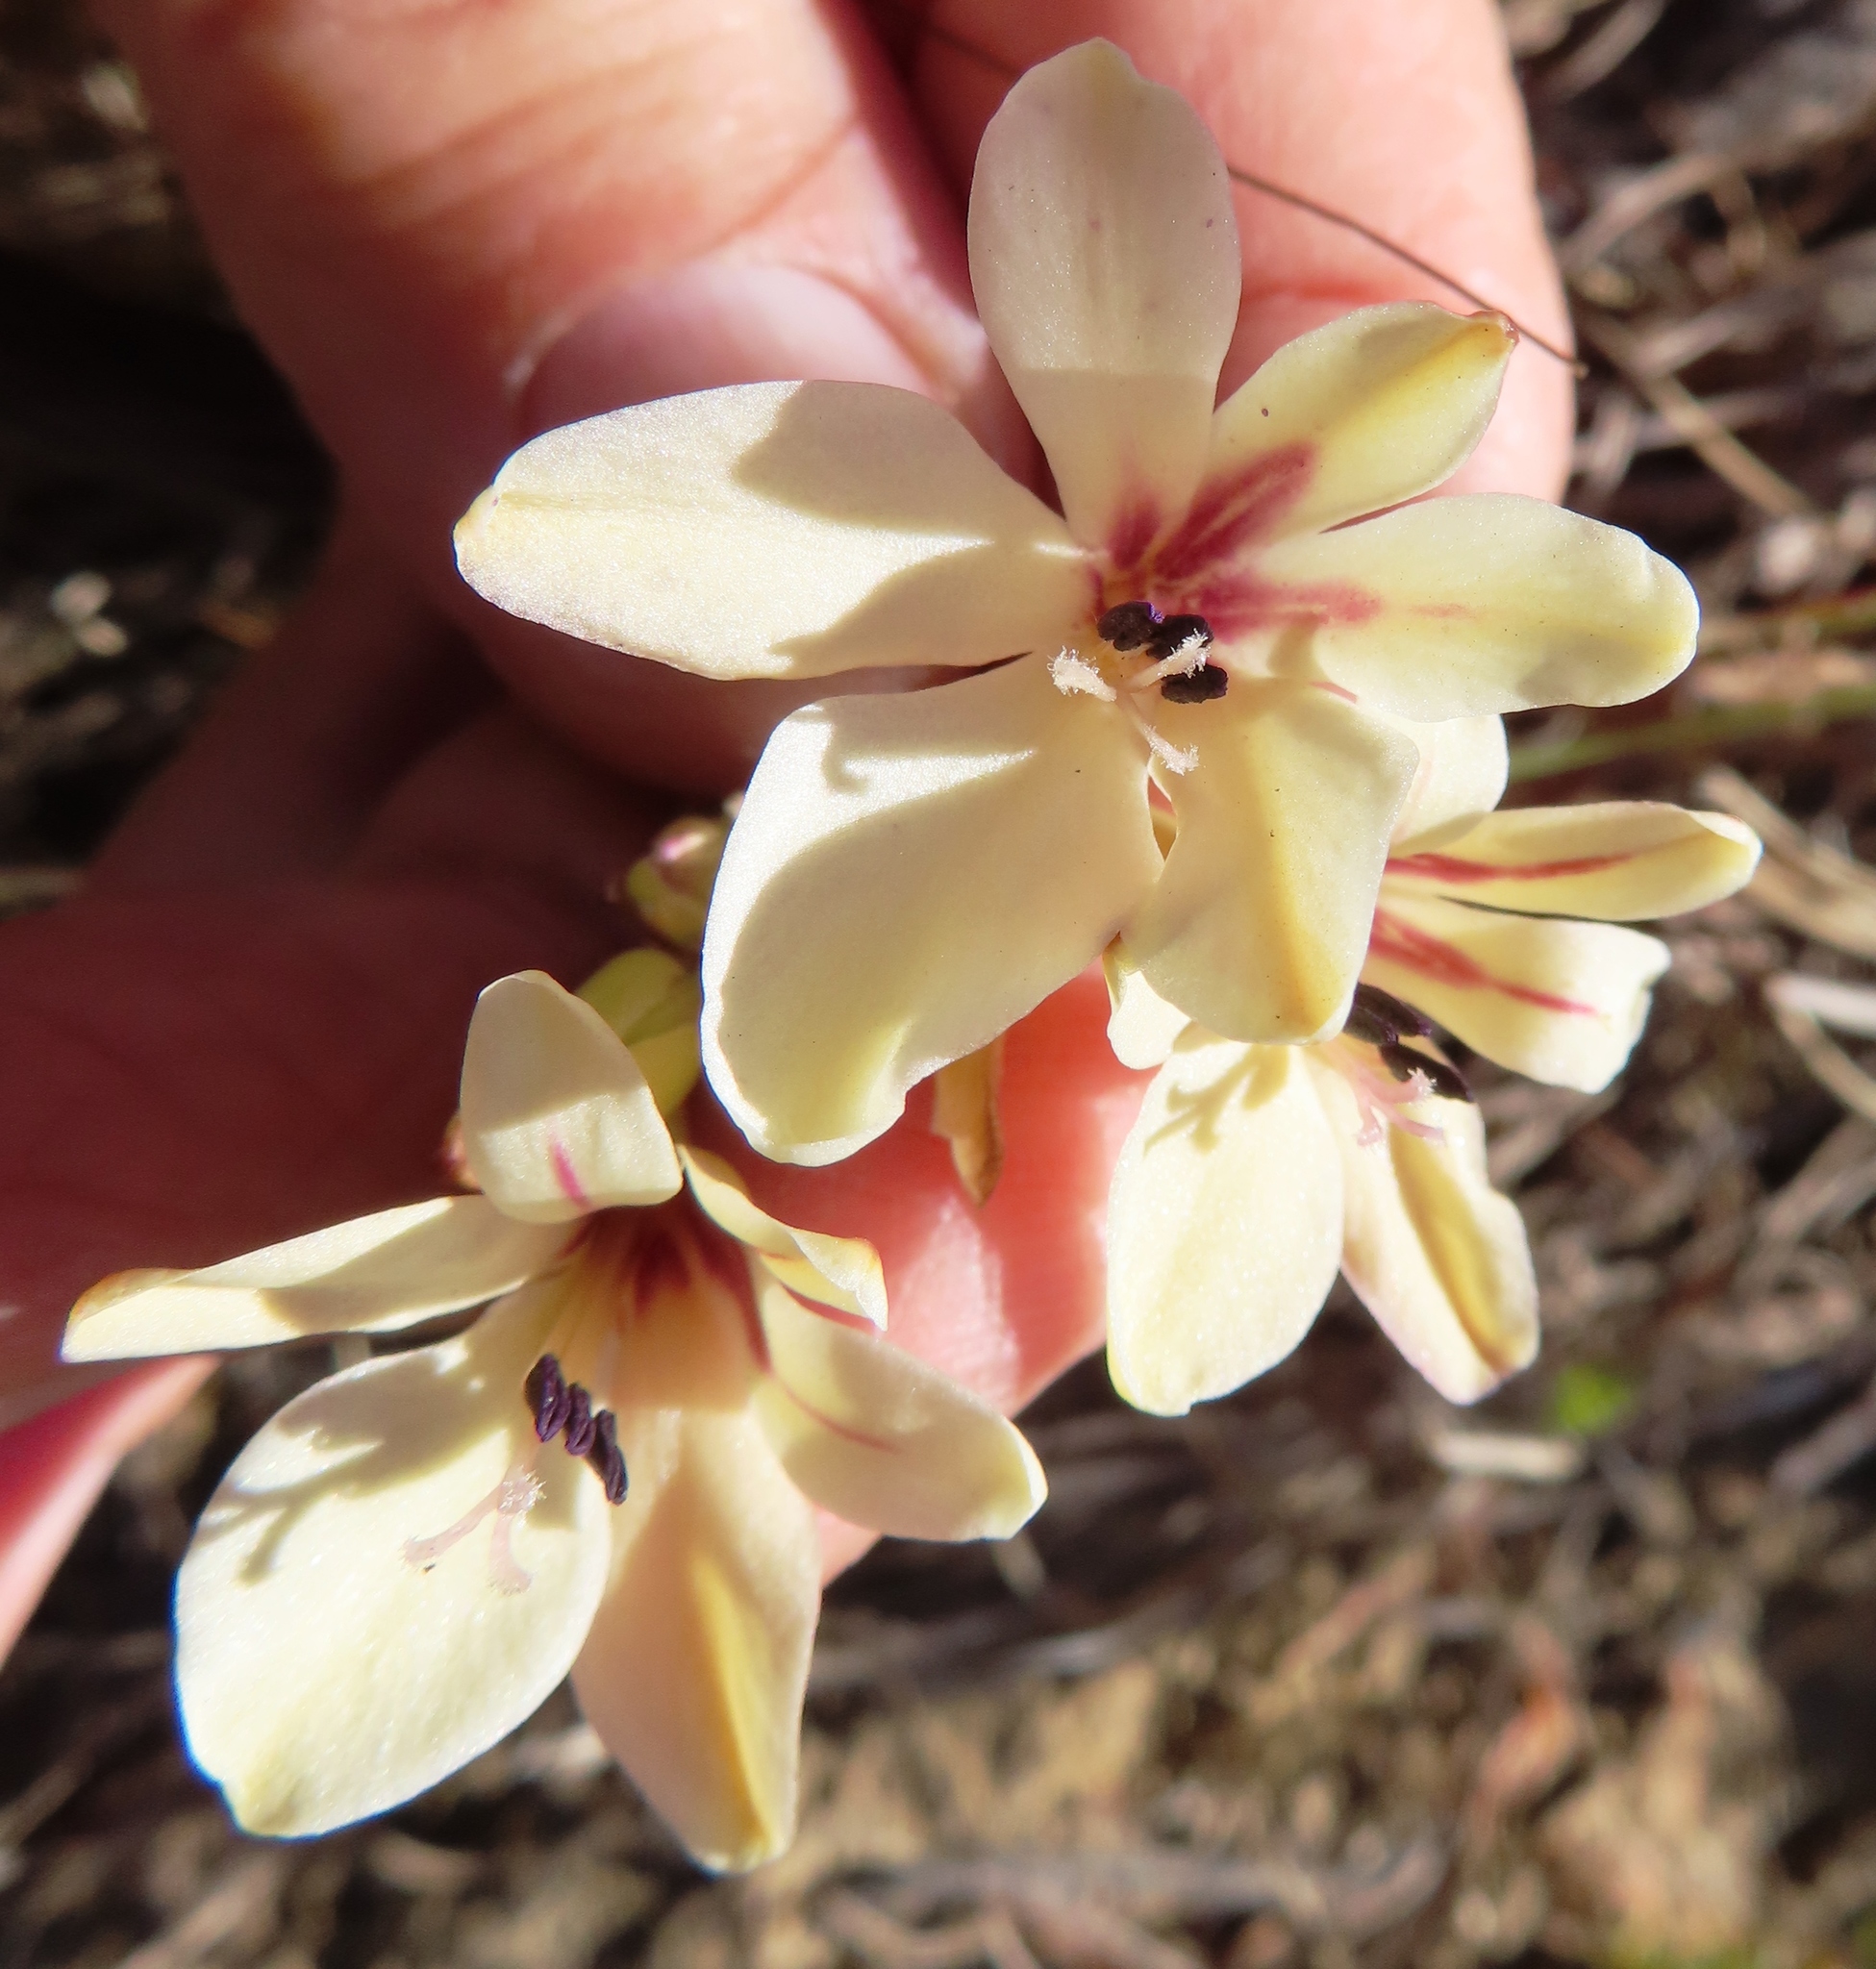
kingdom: Plantae
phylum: Tracheophyta
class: Liliopsida
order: Asparagales
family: Iridaceae
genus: Tritonia
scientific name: Tritonia undulata
